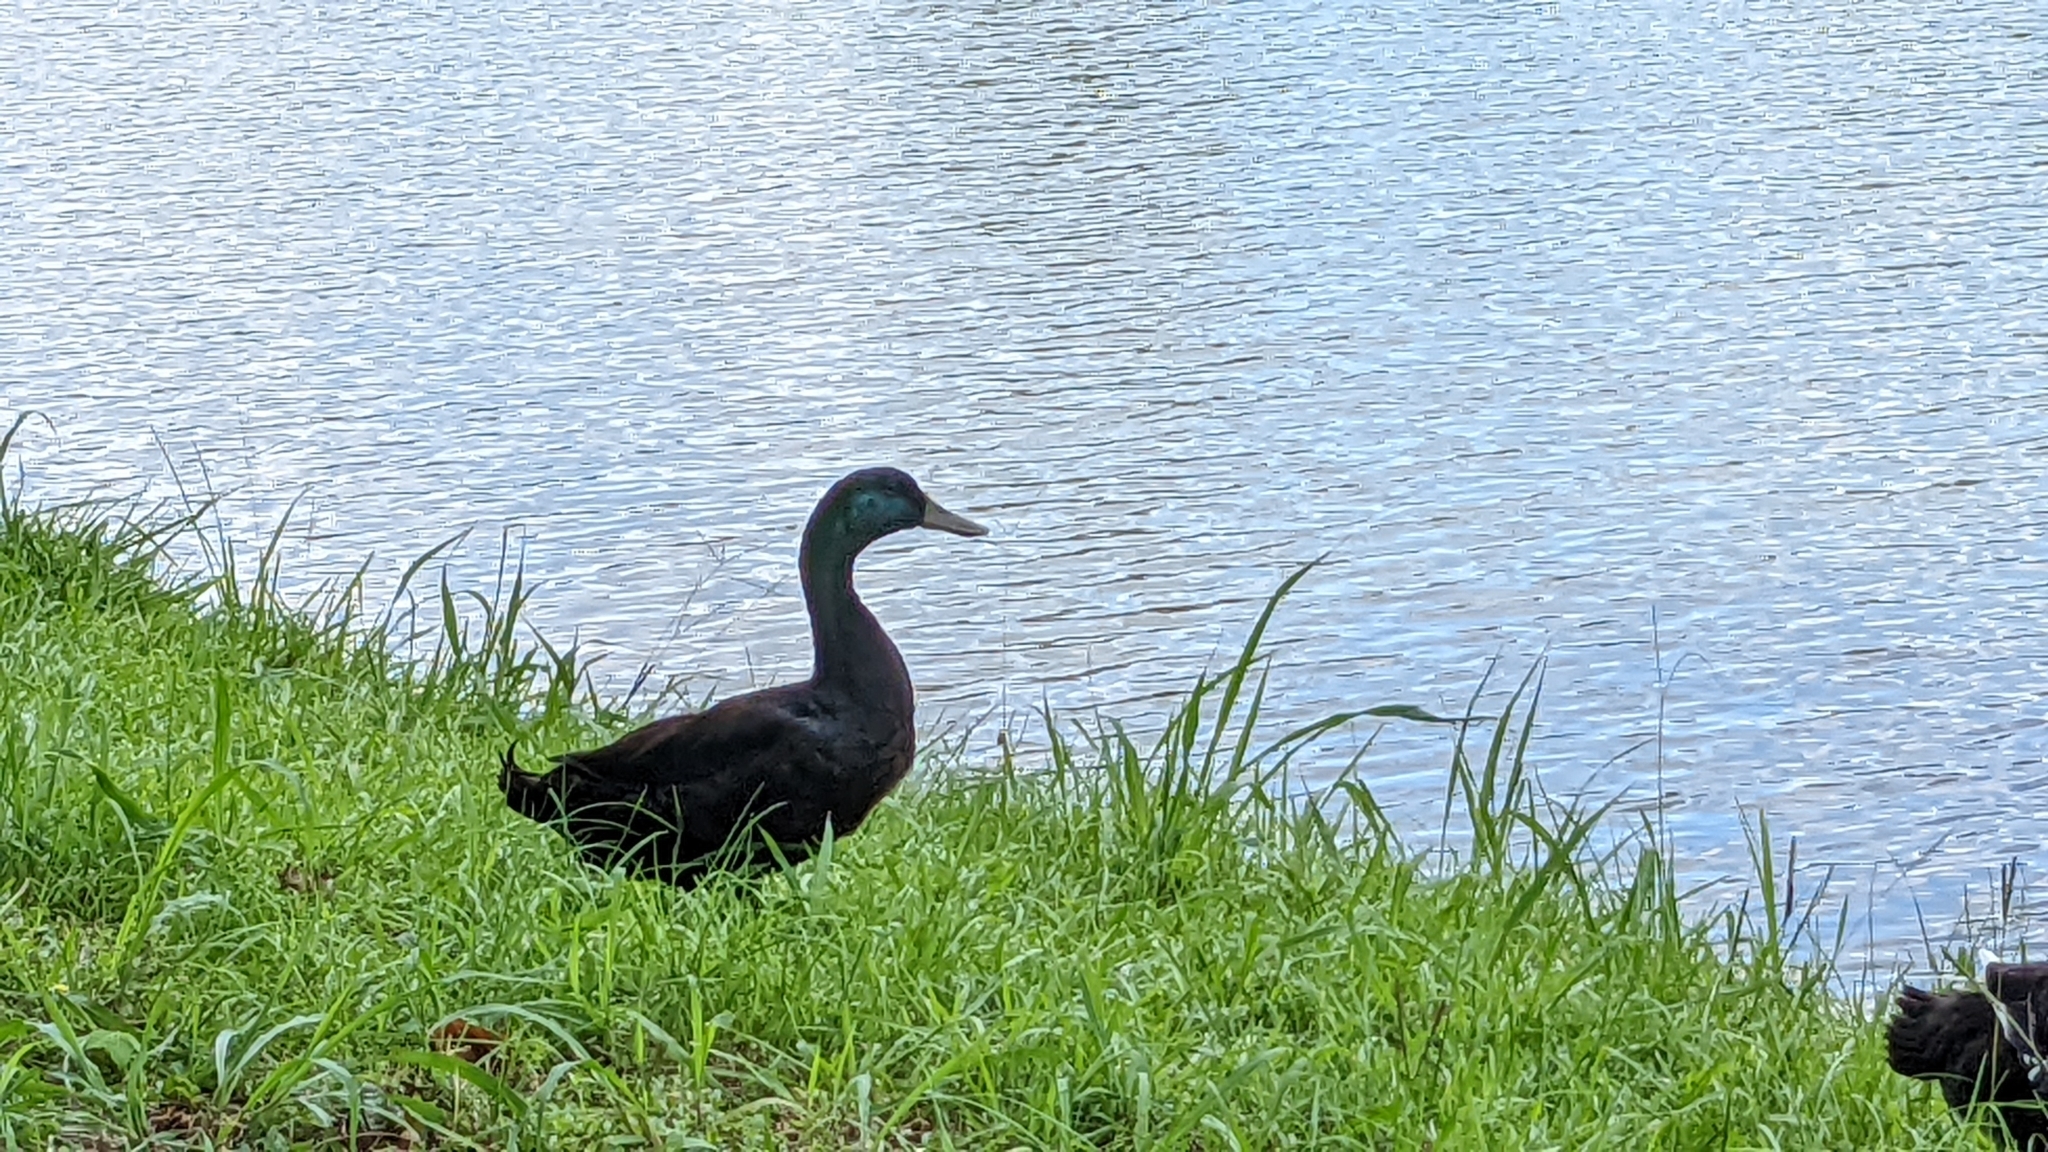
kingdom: Animalia
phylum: Chordata
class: Aves
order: Anseriformes
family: Anatidae
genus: Anas
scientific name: Anas platyrhynchos
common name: Mallard
